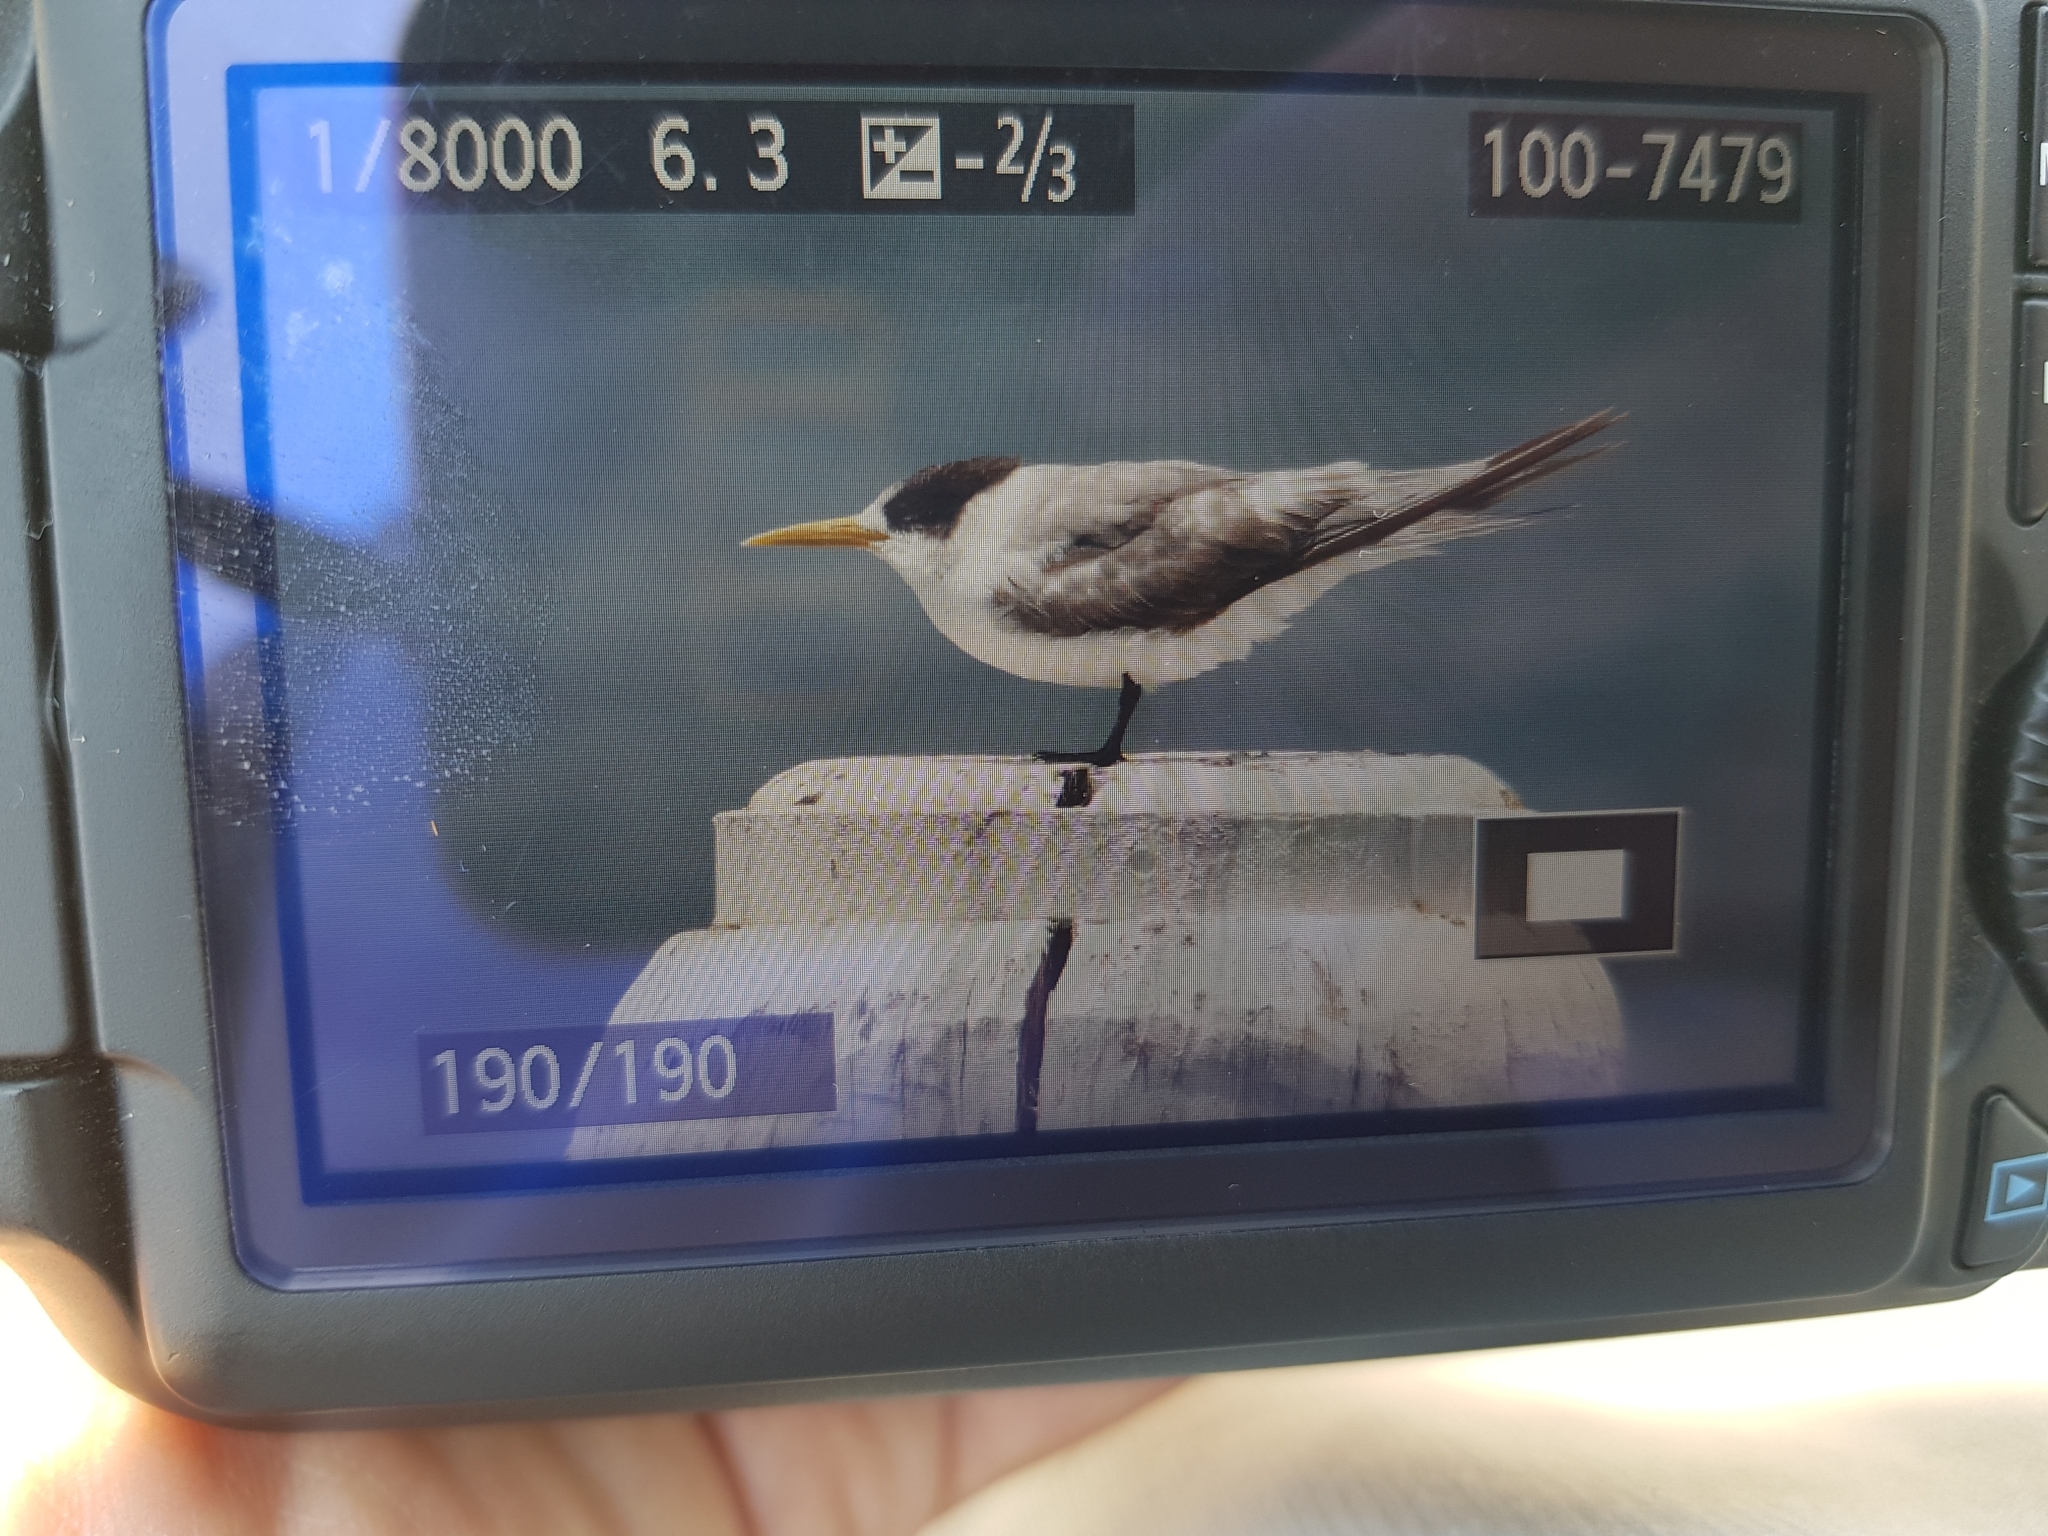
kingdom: Animalia
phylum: Chordata
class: Aves
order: Charadriiformes
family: Laridae
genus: Thalasseus
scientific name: Thalasseus bergii
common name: Greater crested tern
